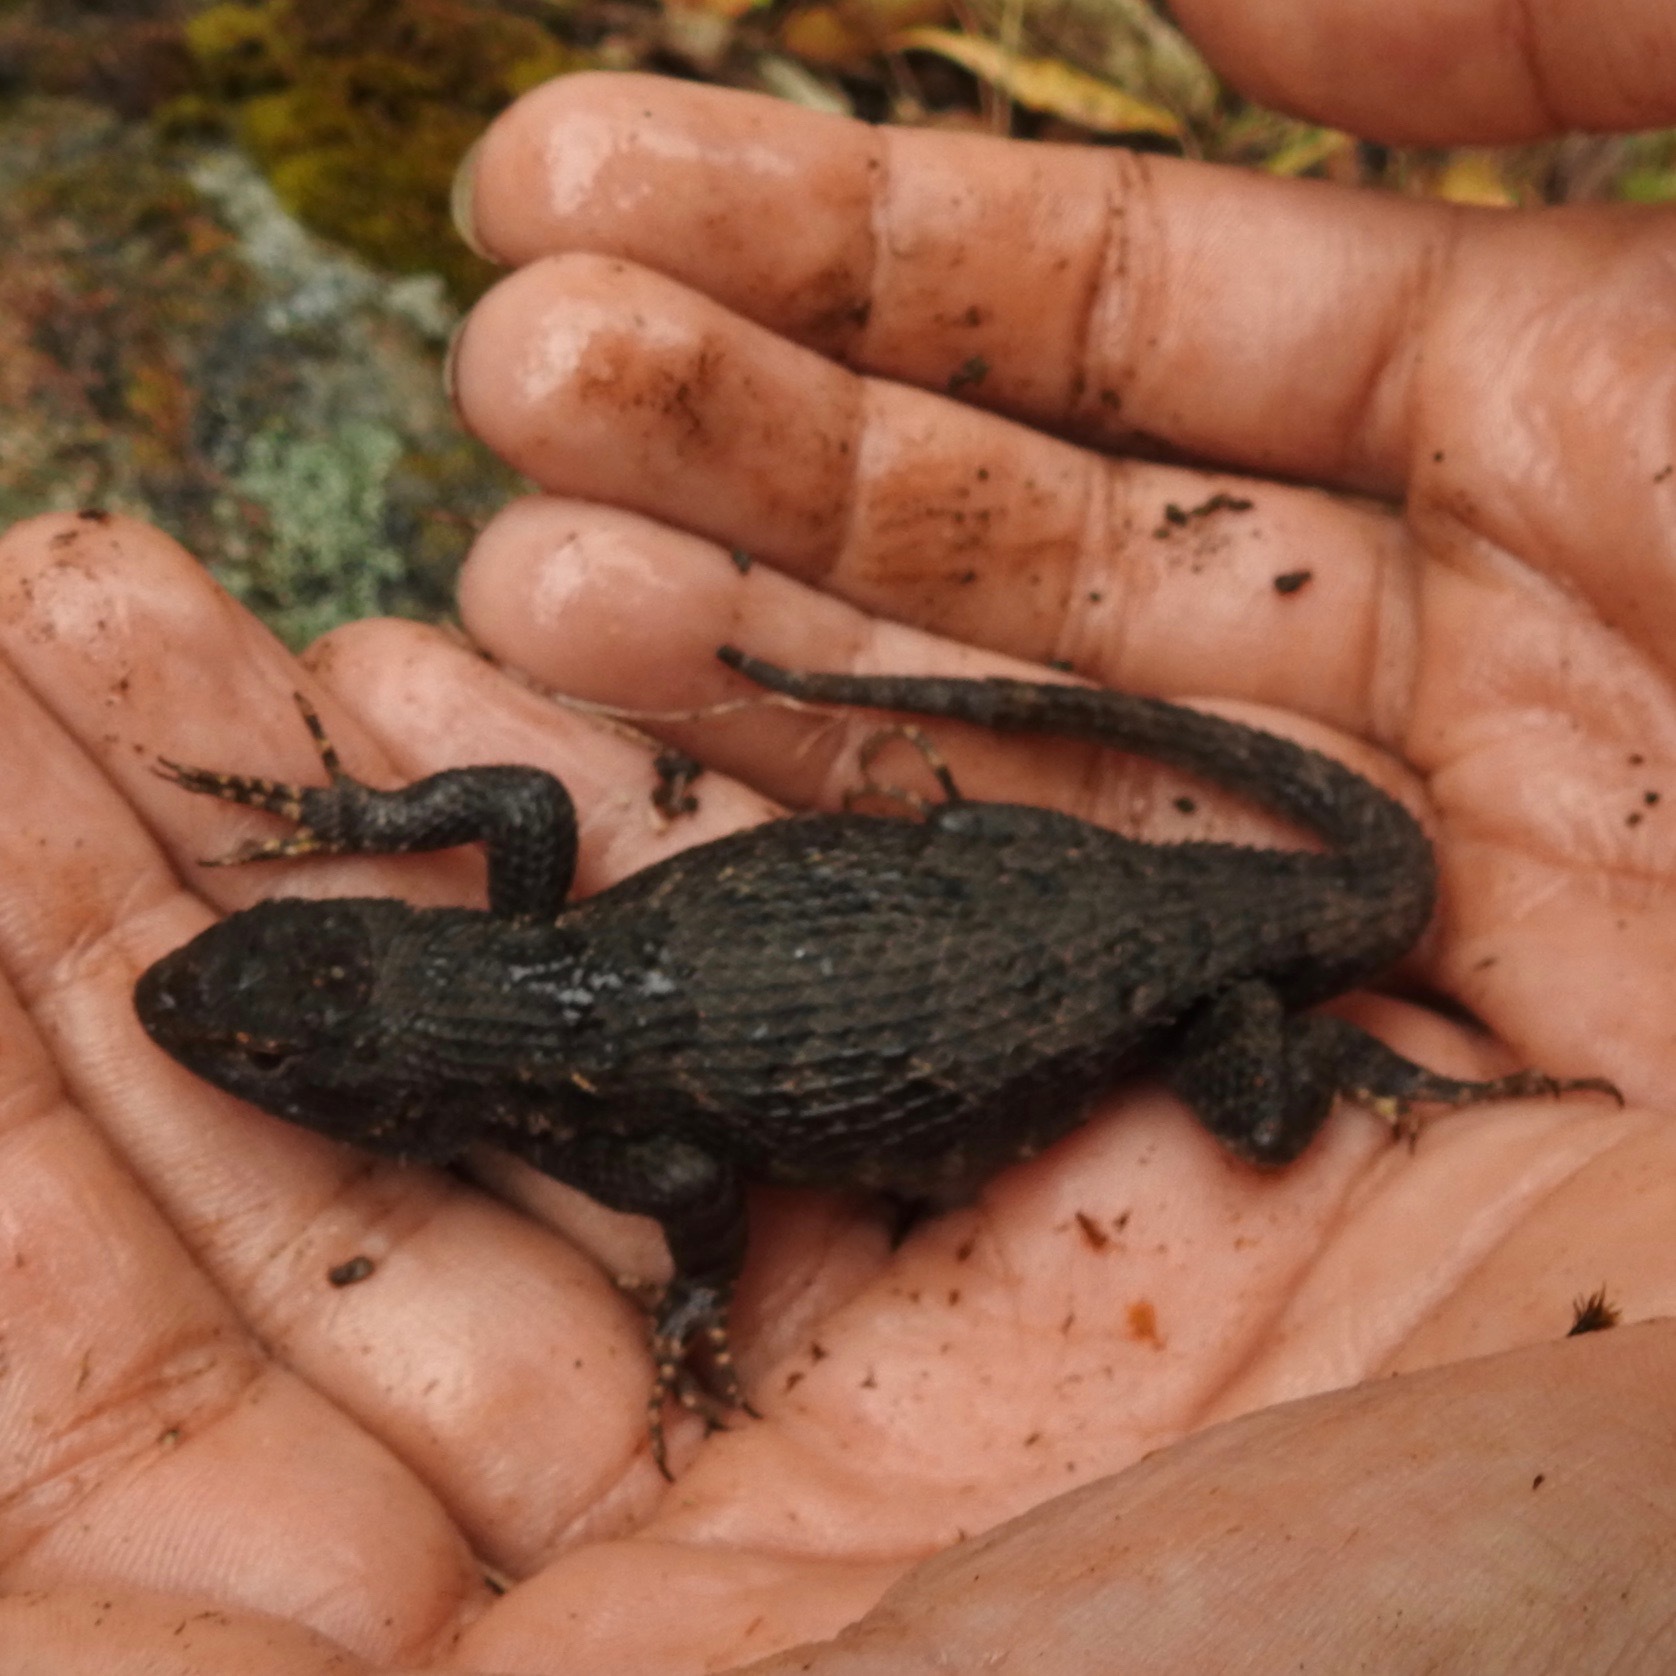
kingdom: Animalia
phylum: Chordata
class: Squamata
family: Phrynosomatidae
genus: Sceloporus
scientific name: Sceloporus occidentalis
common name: Western fence lizard
